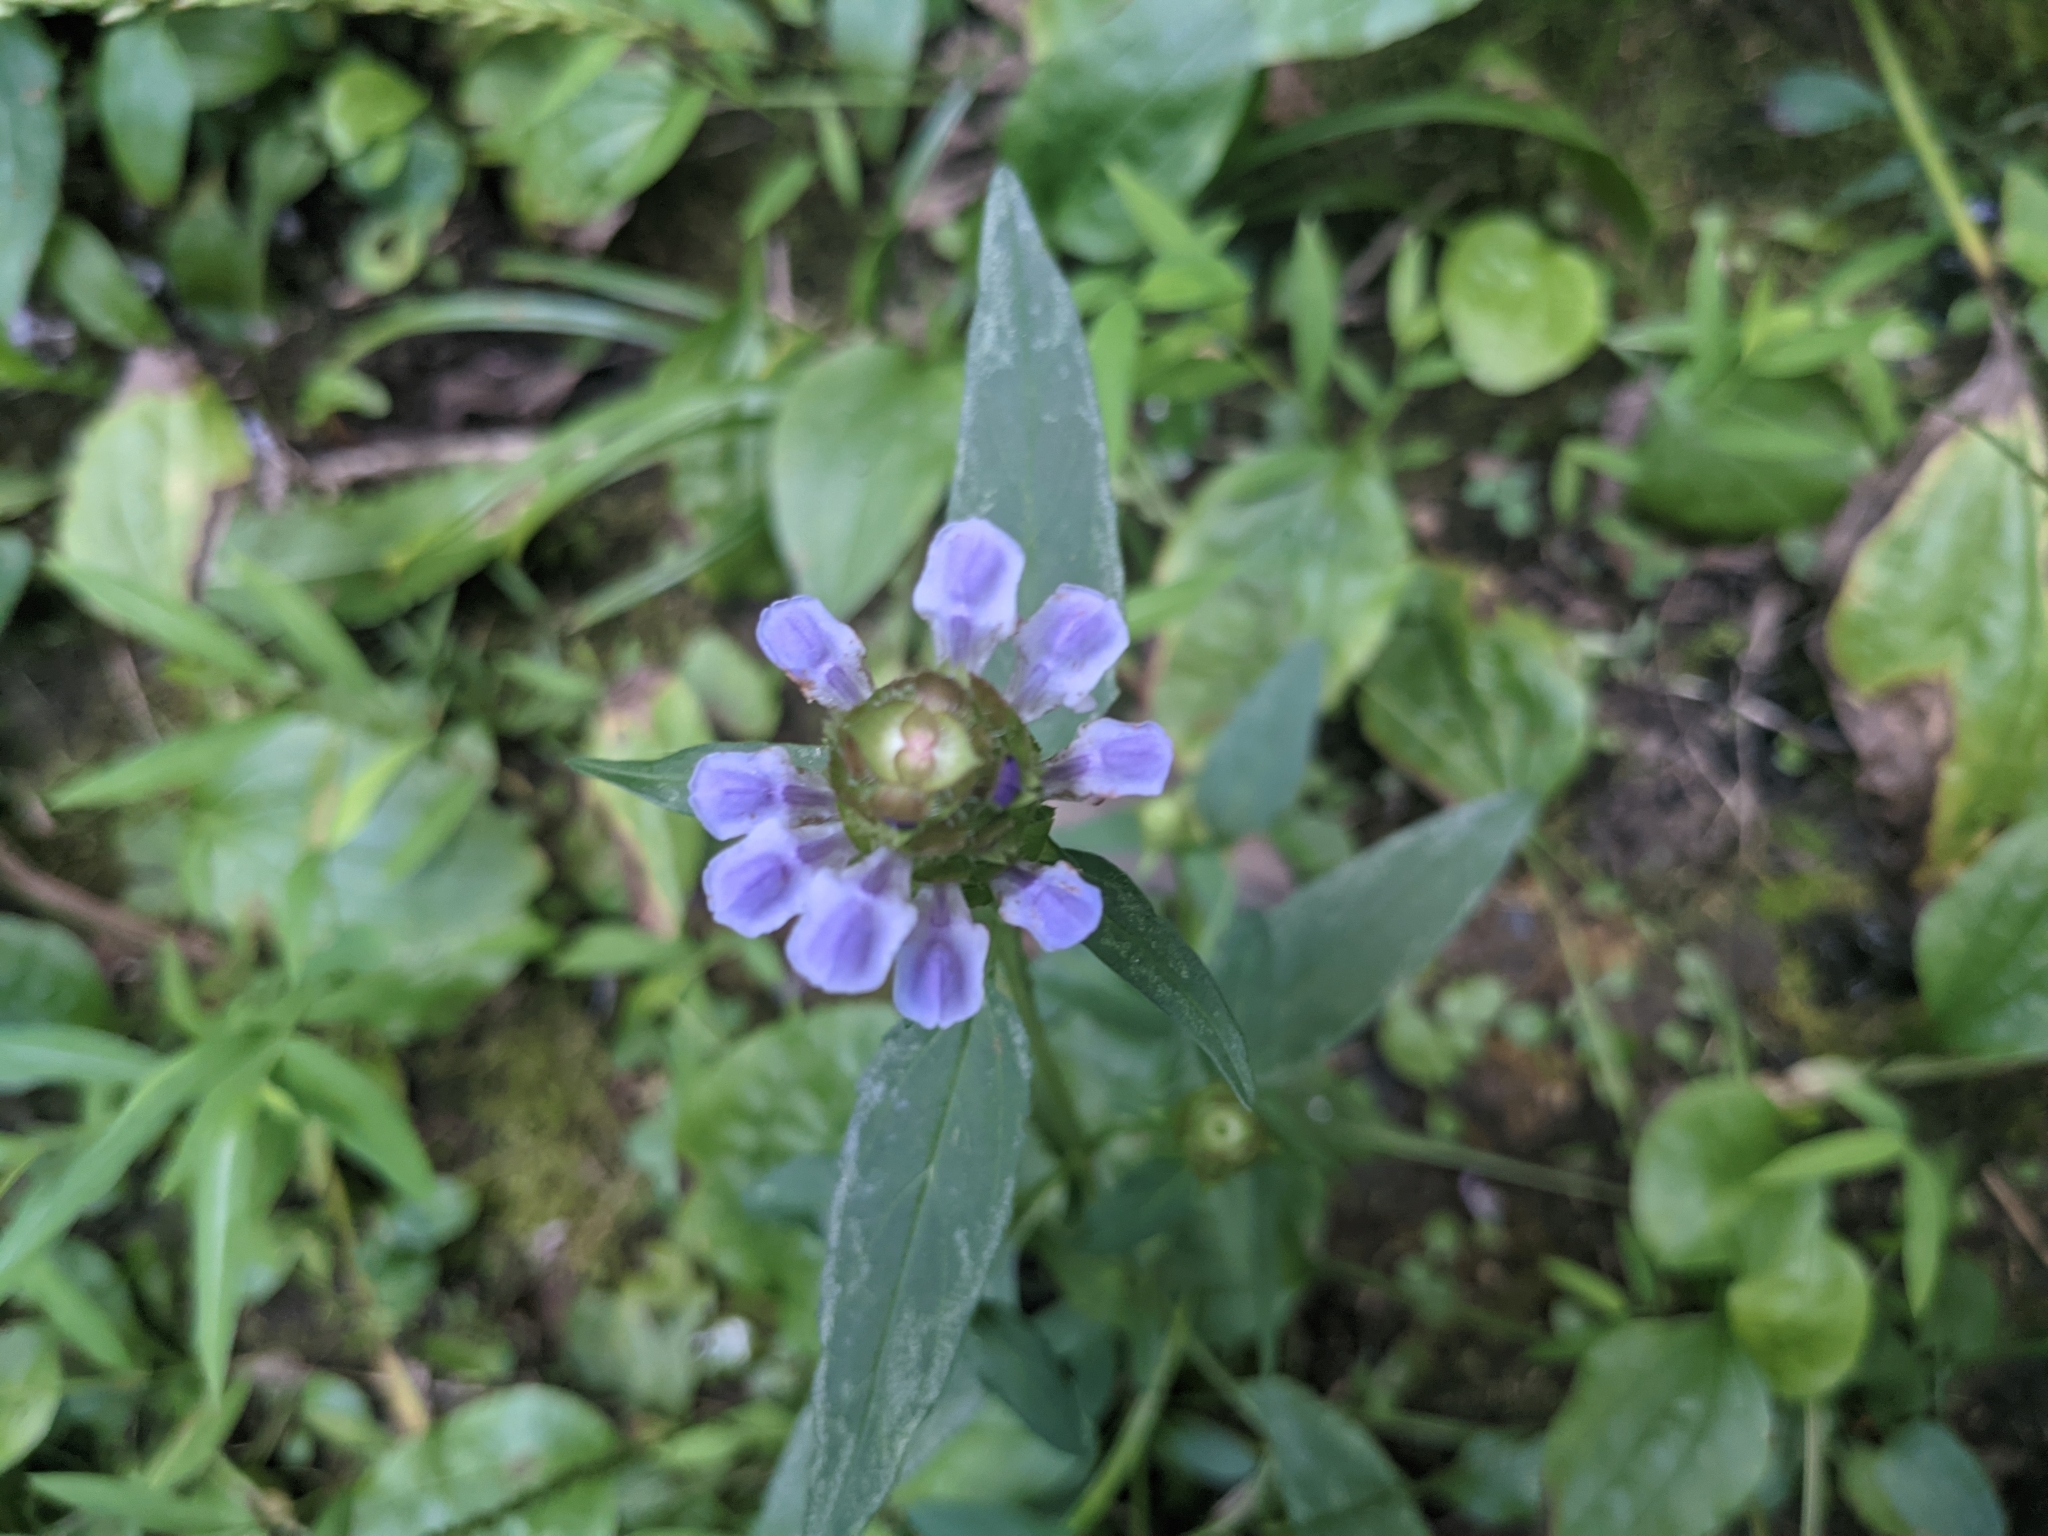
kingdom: Plantae
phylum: Tracheophyta
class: Magnoliopsida
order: Lamiales
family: Lamiaceae
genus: Prunella
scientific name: Prunella vulgaris
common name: Heal-all
